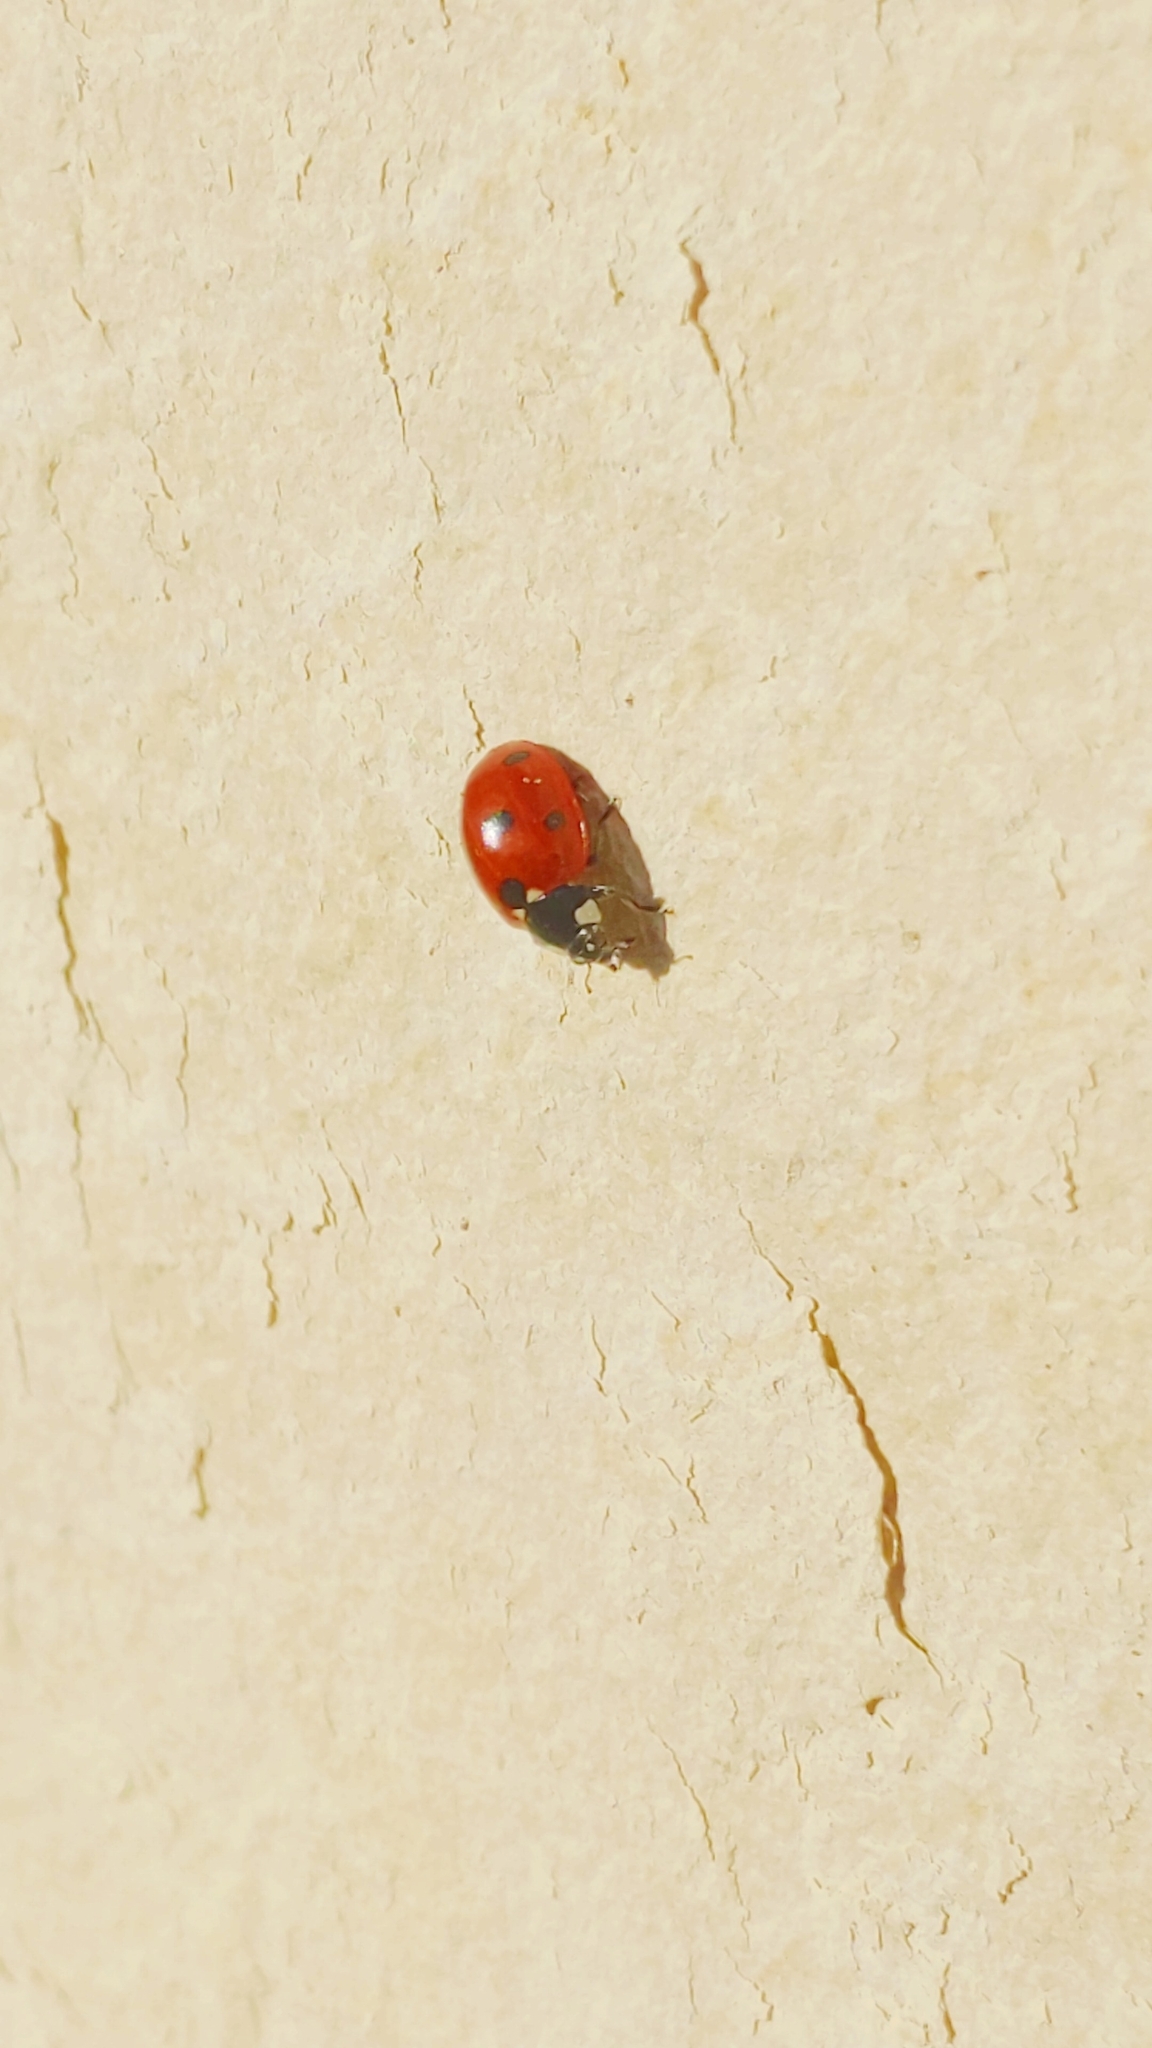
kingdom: Animalia
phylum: Arthropoda
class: Insecta
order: Coleoptera
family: Coccinellidae
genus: Coccinella
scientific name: Coccinella septempunctata
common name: Sevenspotted lady beetle
